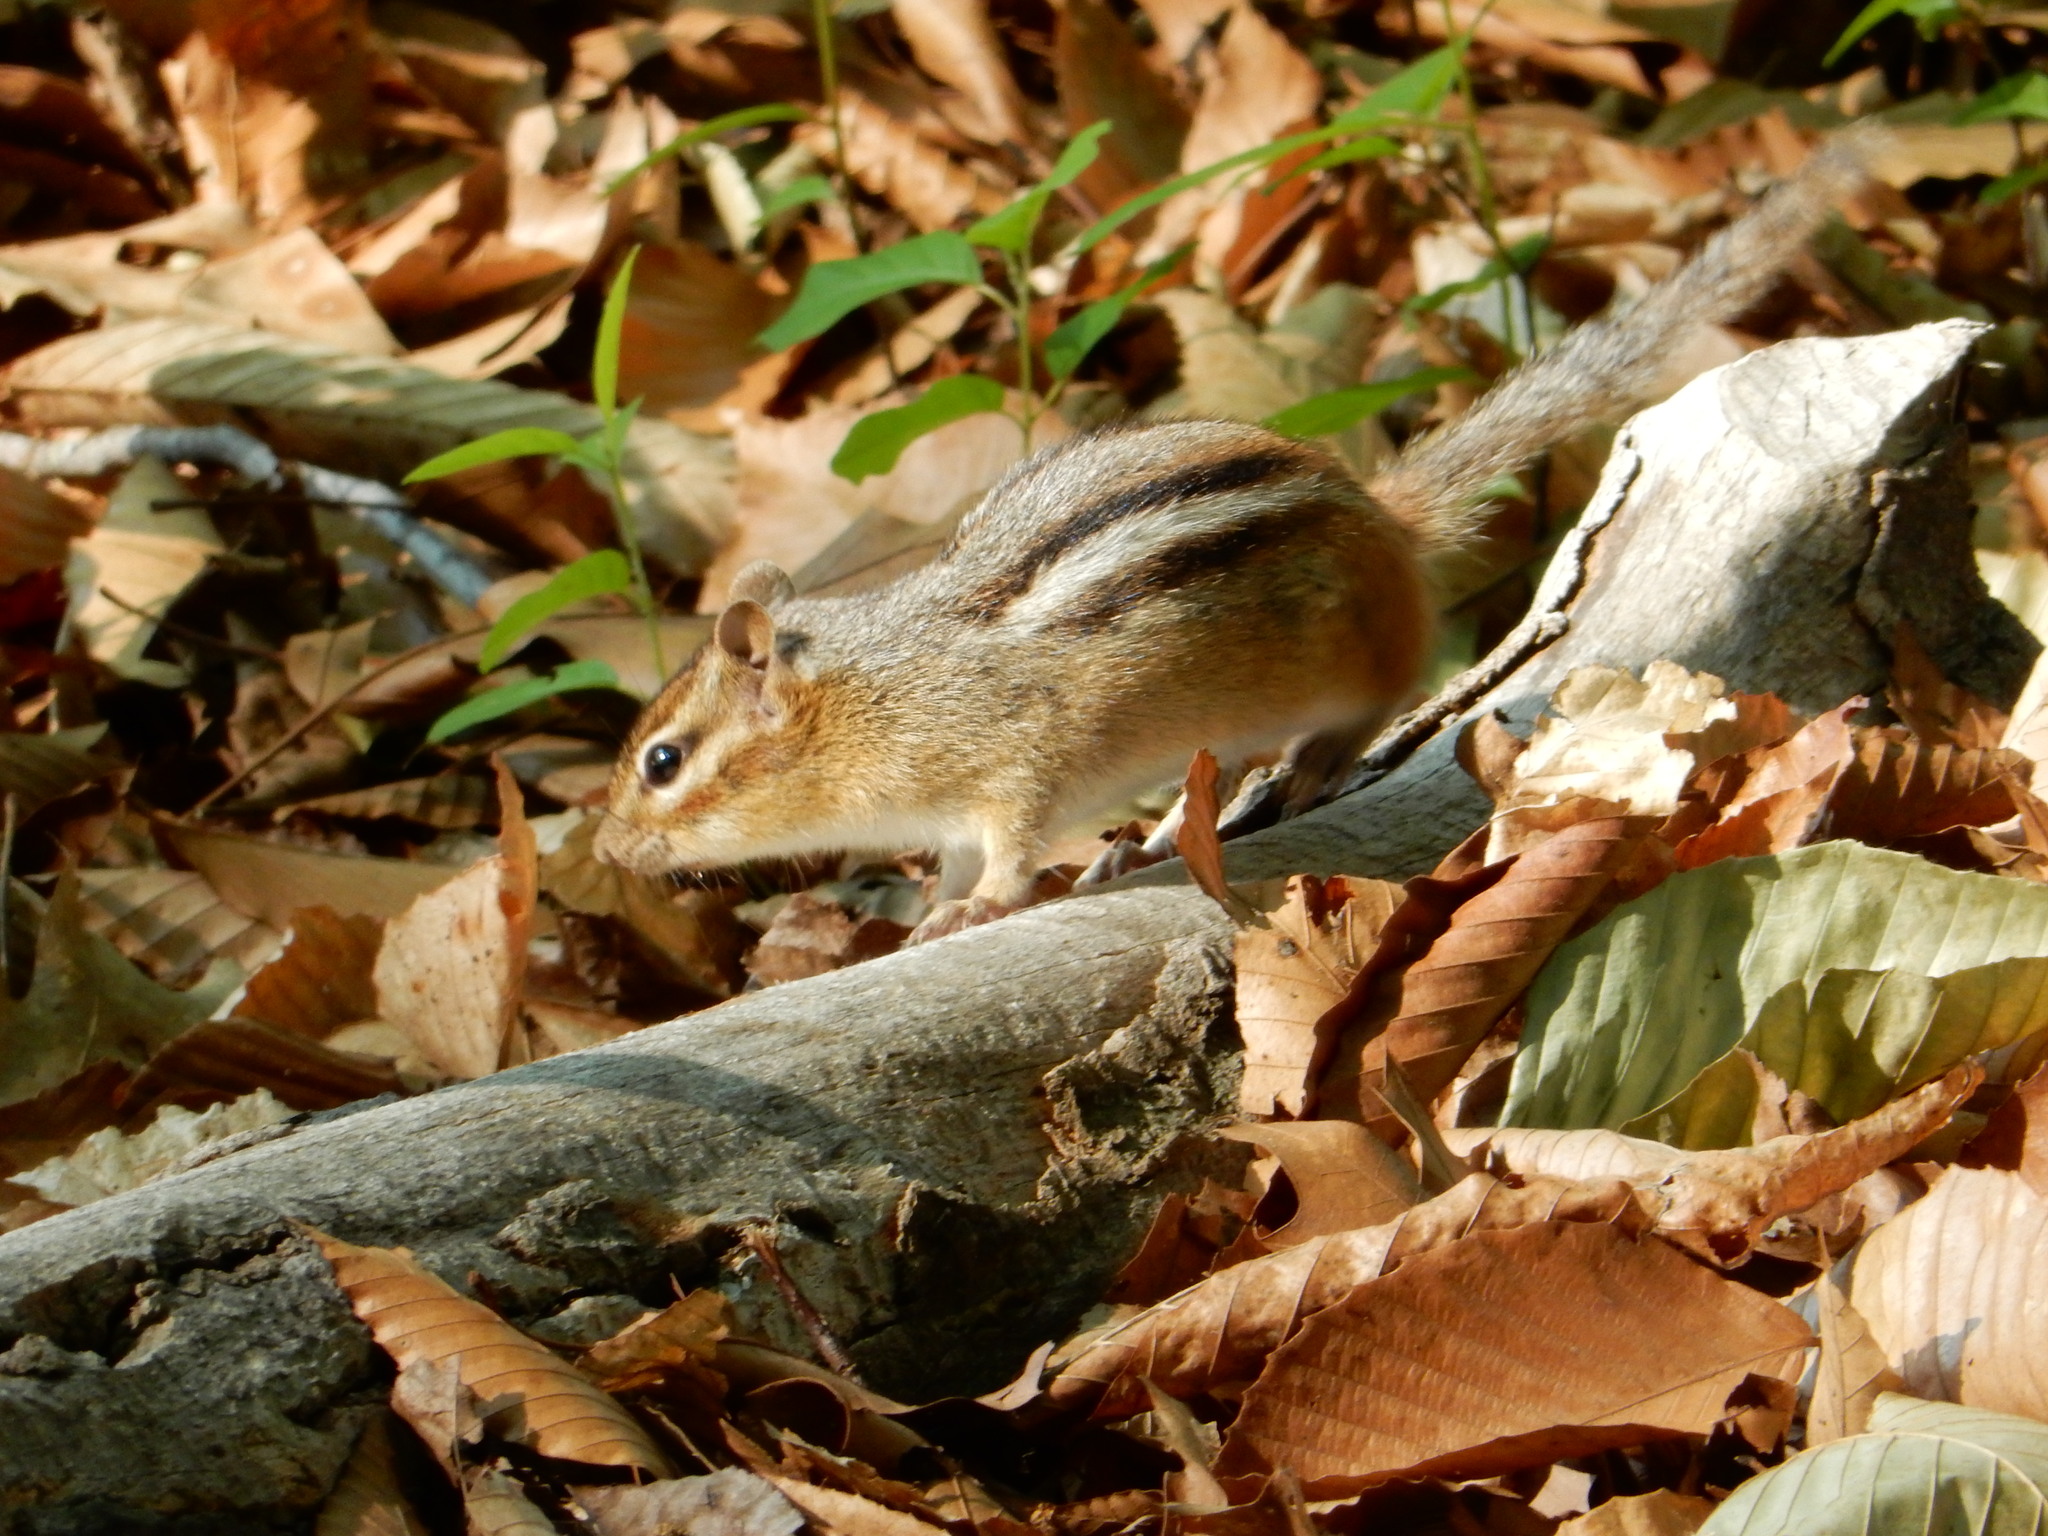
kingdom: Animalia
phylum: Chordata
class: Mammalia
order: Rodentia
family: Sciuridae
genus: Tamias
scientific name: Tamias striatus
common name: Eastern chipmunk
